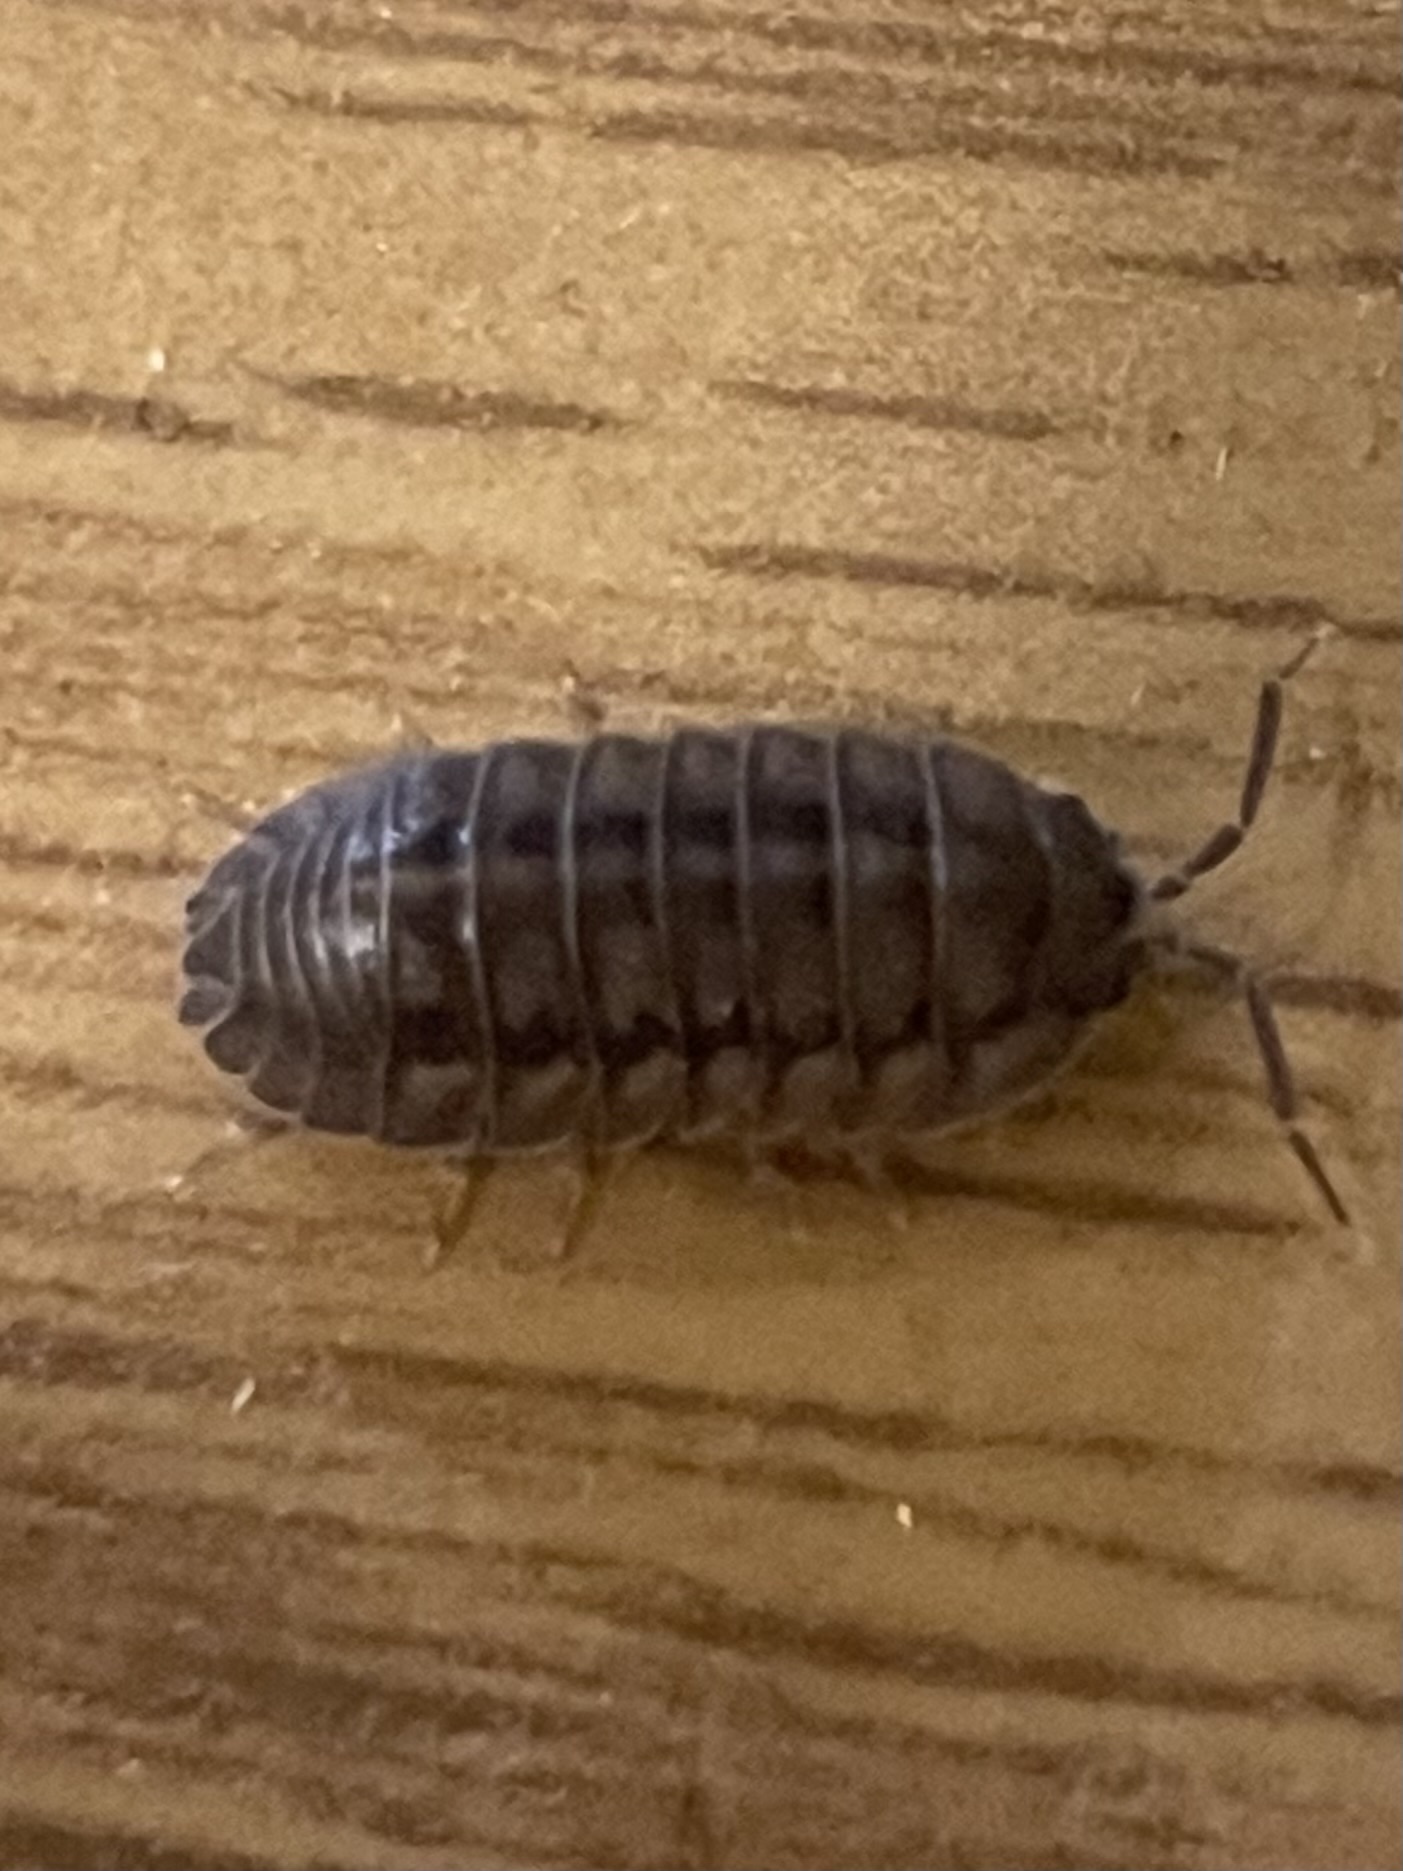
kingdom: Animalia
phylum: Arthropoda
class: Malacostraca
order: Isopoda
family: Armadillidiidae
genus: Armadillidium
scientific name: Armadillidium nasatum
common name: Isopod
